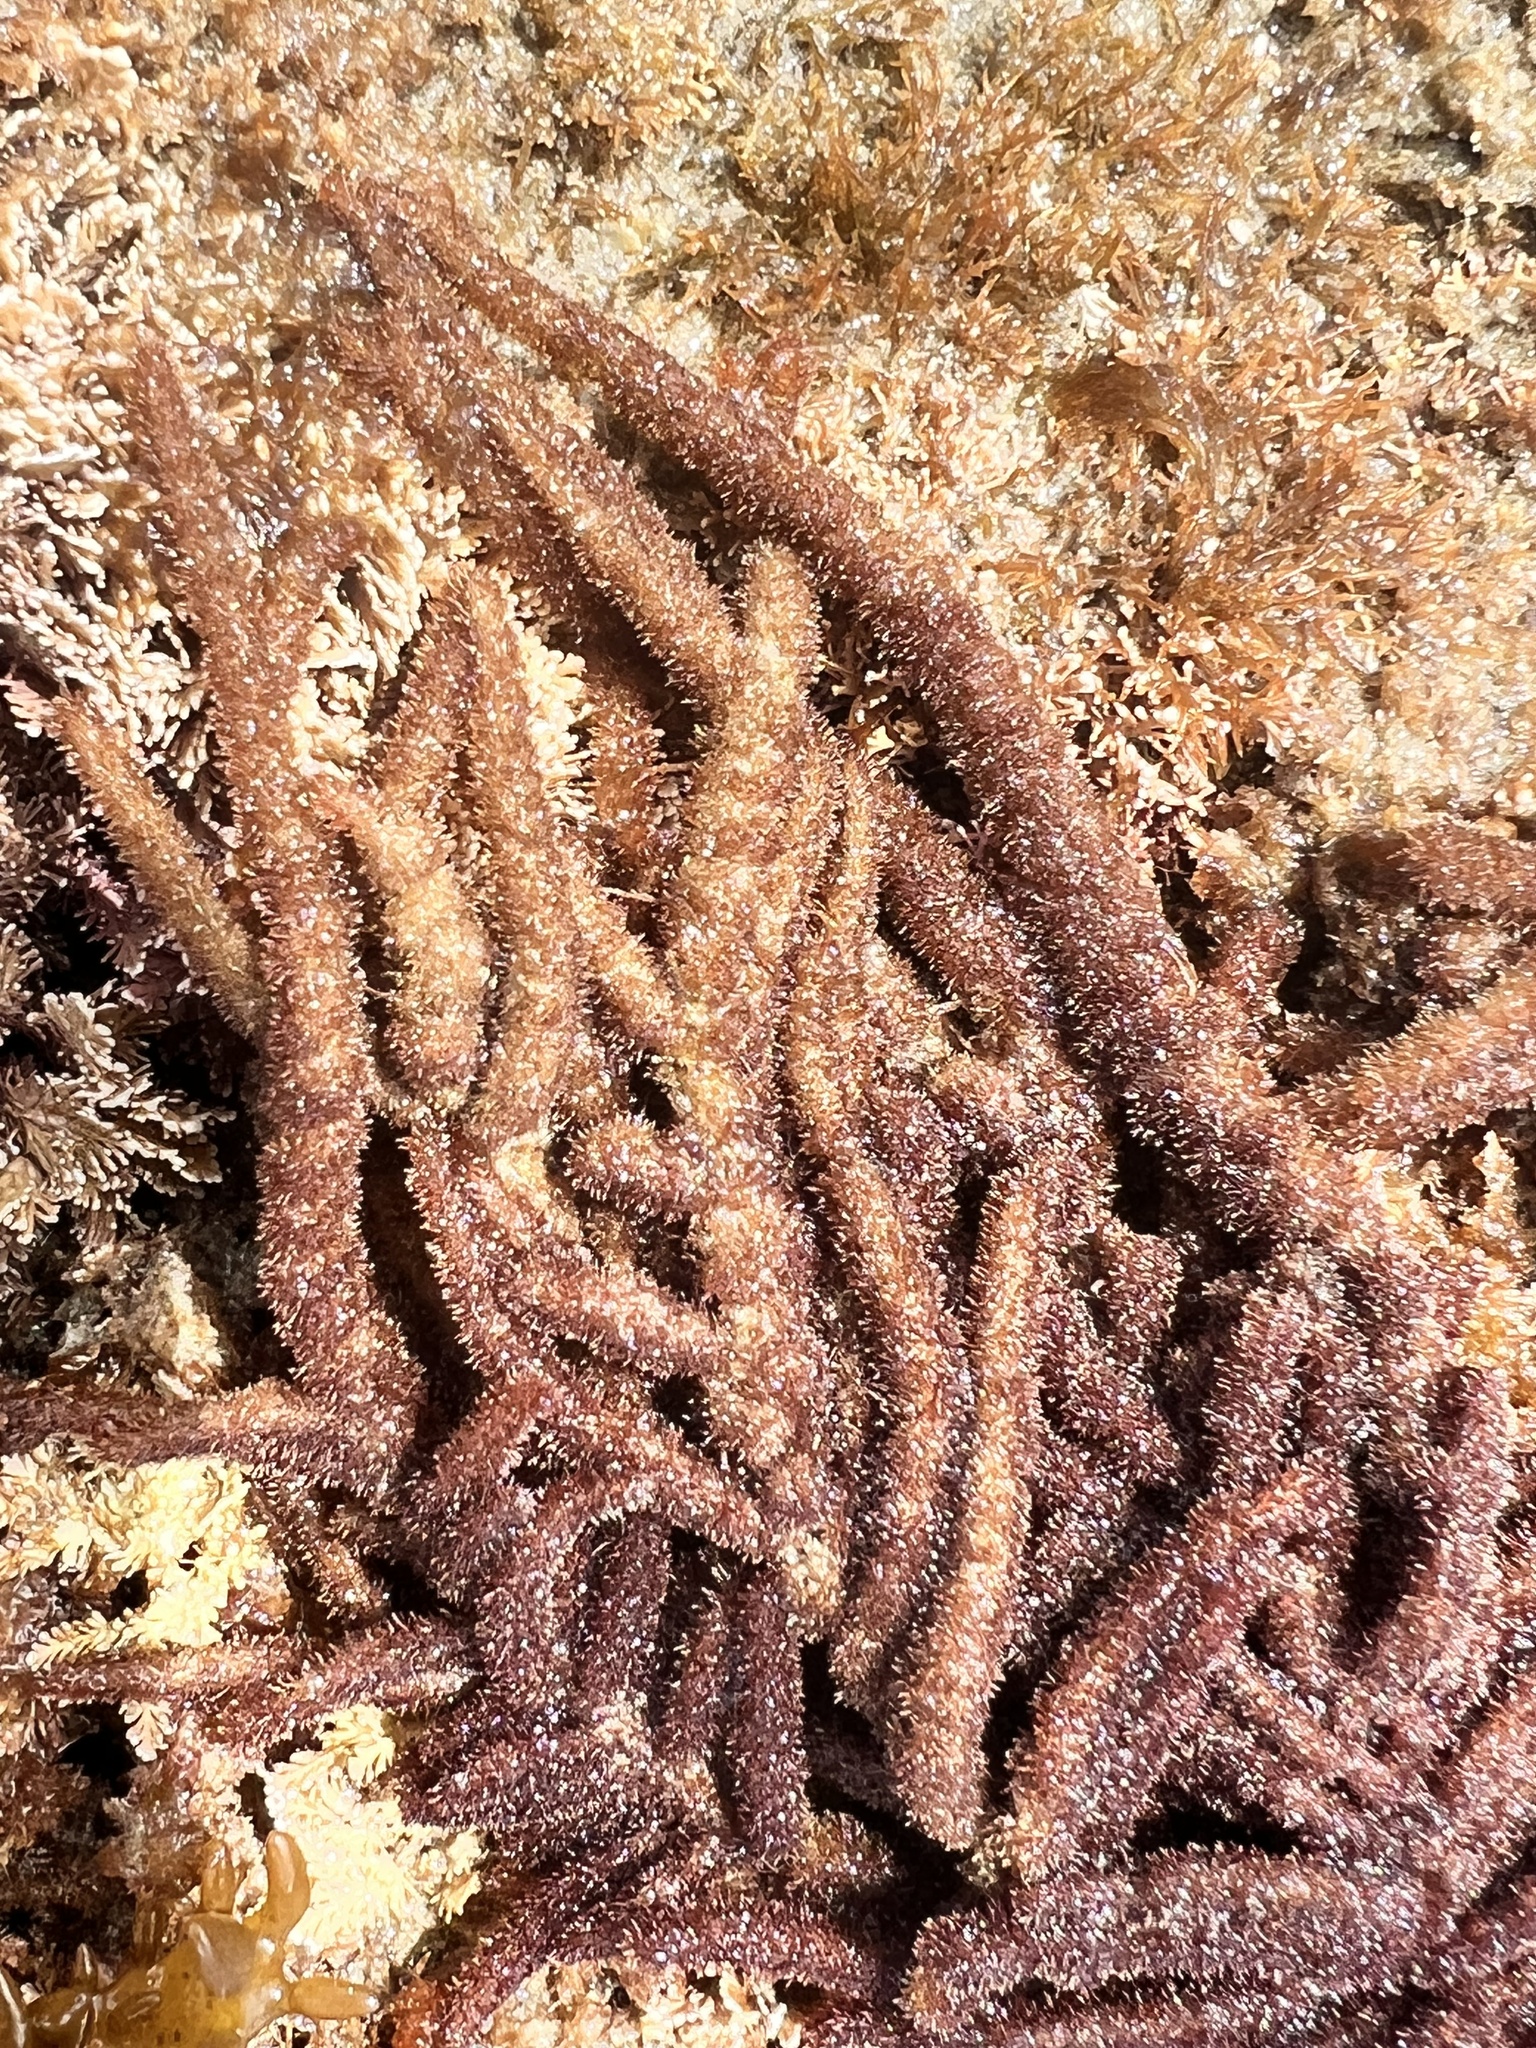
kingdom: Plantae
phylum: Rhodophyta
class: Florideophyceae
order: Ceramiales
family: Rhodomelaceae
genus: Echinothamnion
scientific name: Echinothamnion
